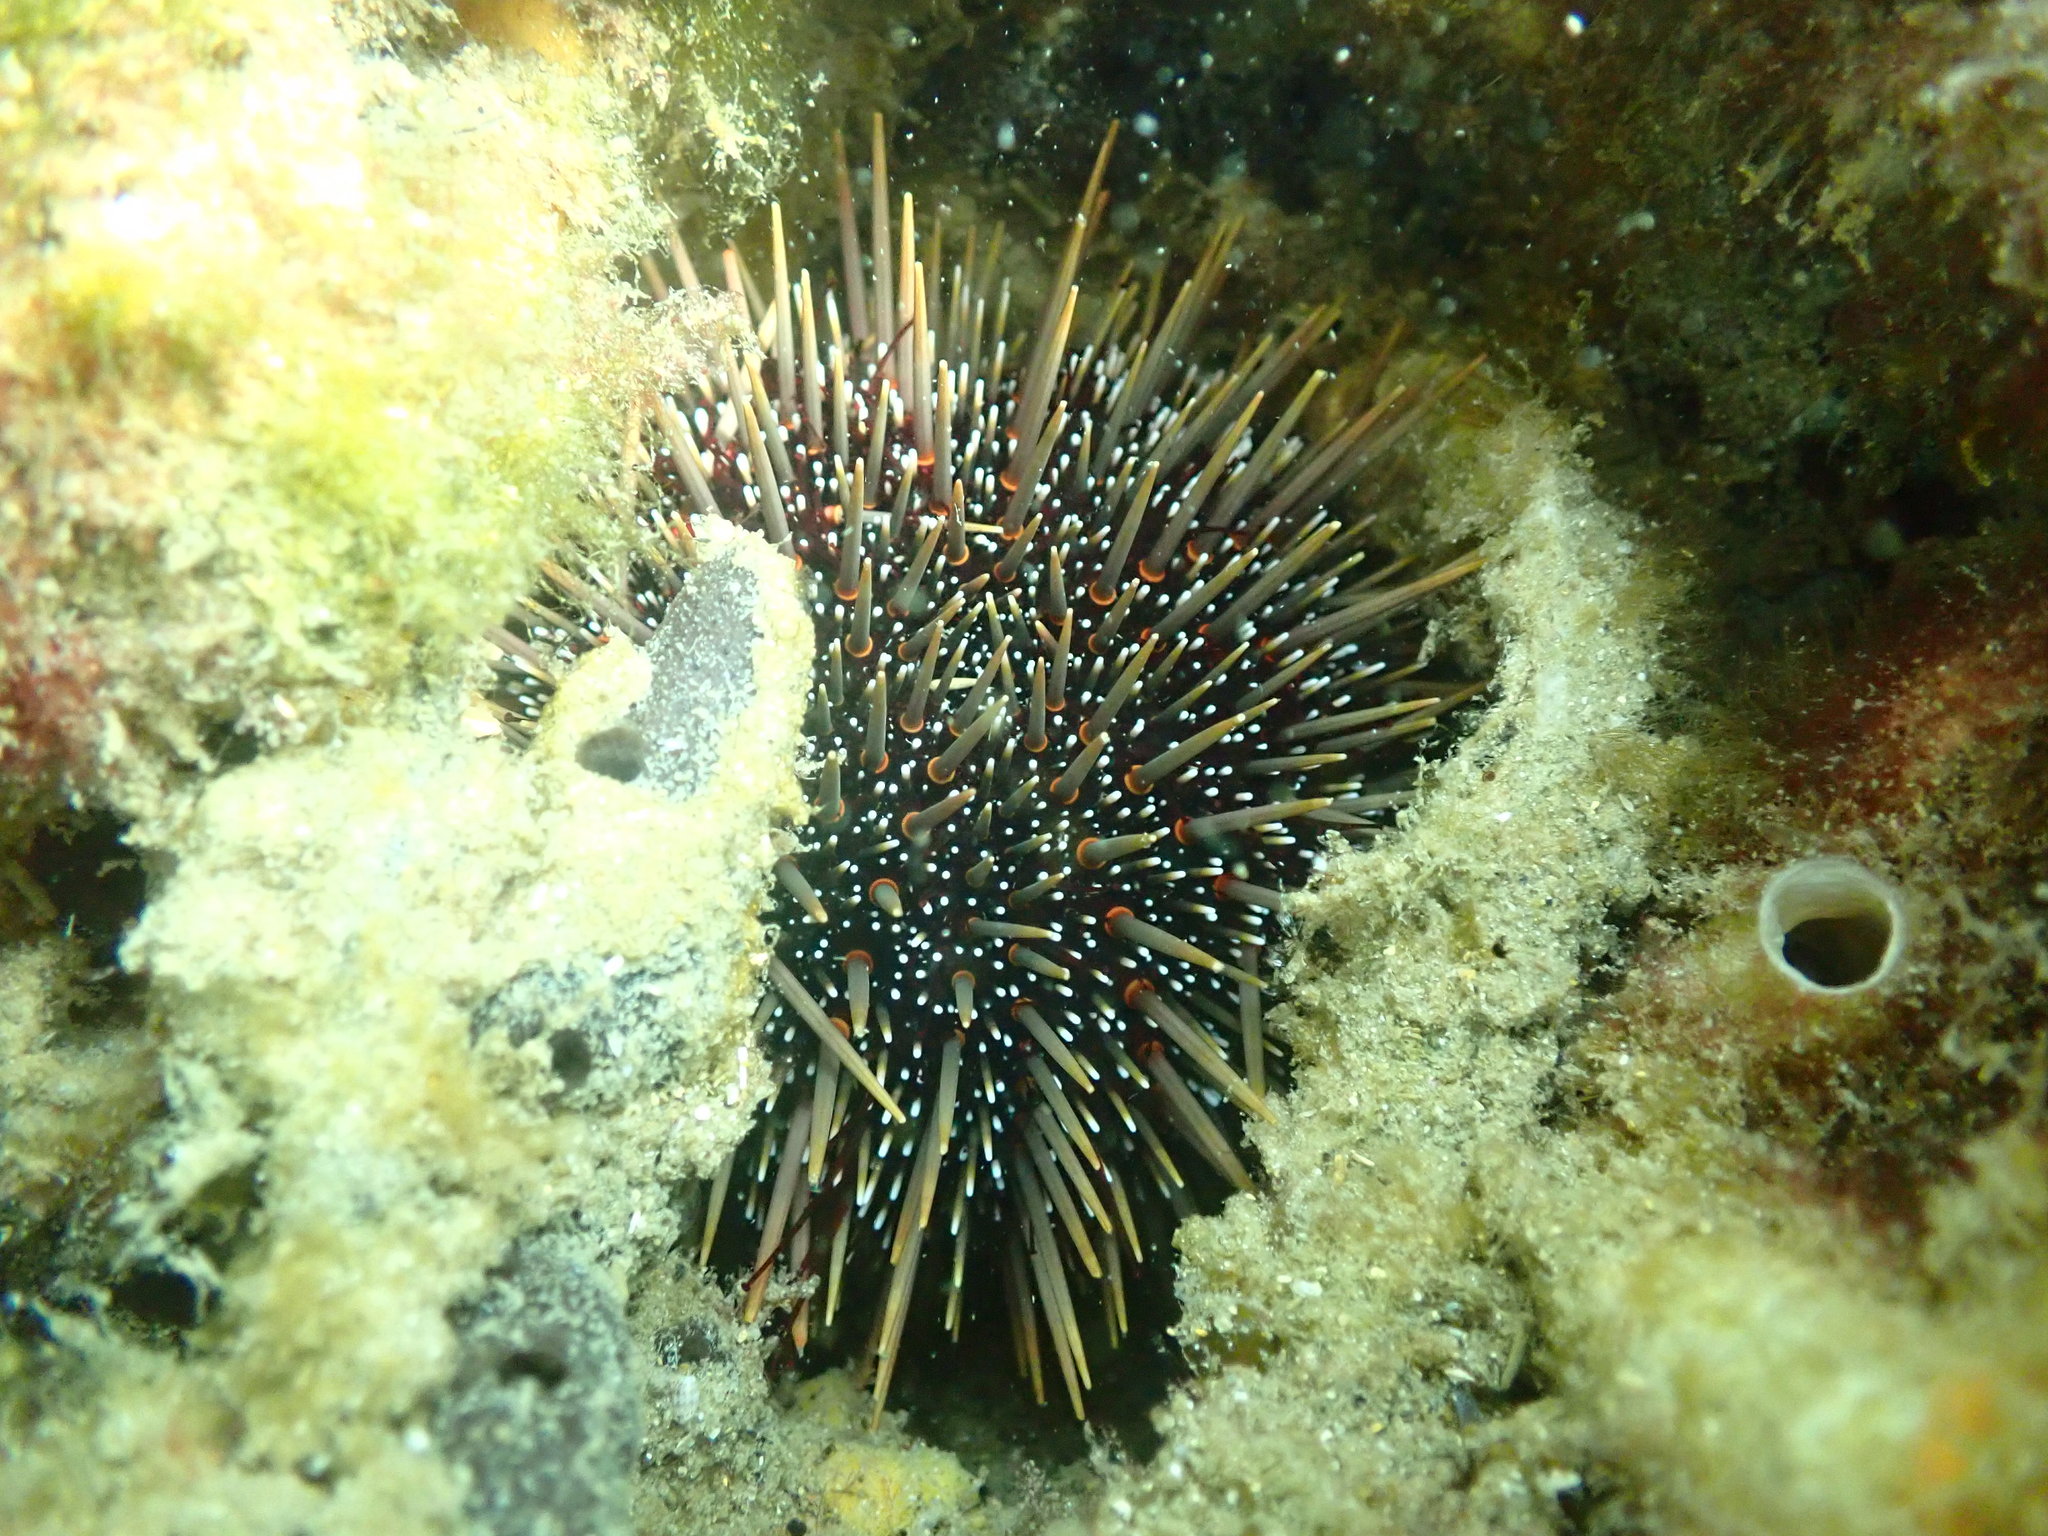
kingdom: Animalia
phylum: Echinodermata
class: Echinoidea
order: Camarodonta
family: Echinometridae
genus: Evechinus
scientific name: Evechinus chloroticus
